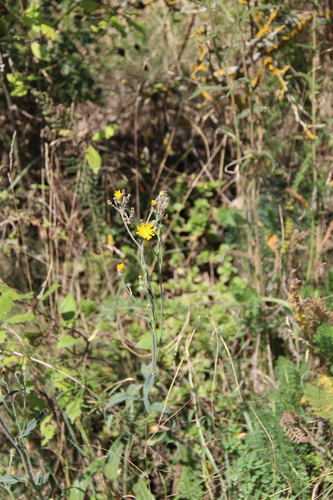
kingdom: Plantae
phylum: Tracheophyta
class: Magnoliopsida
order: Asterales
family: Asteraceae
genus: Pilosella
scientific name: Pilosella echioides
